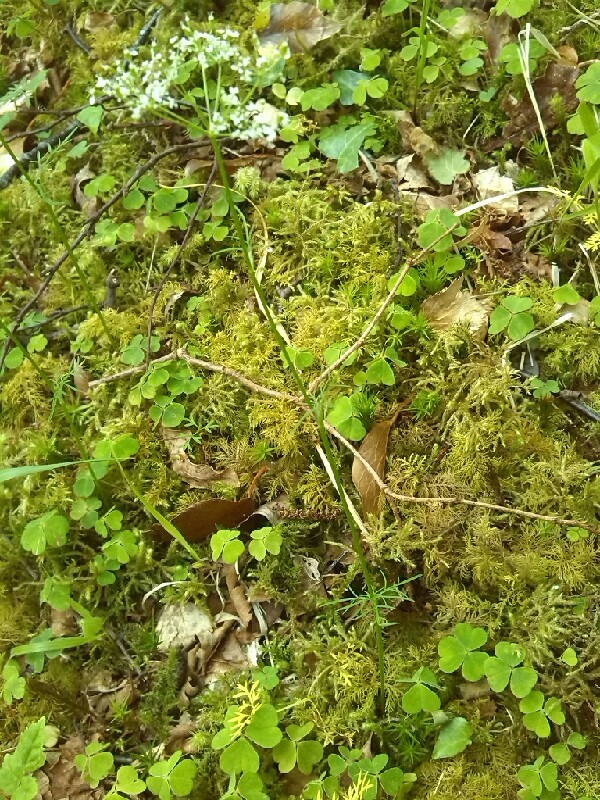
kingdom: Plantae
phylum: Tracheophyta
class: Magnoliopsida
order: Apiales
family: Apiaceae
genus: Conopodium
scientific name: Conopodium majus
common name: Pignut
